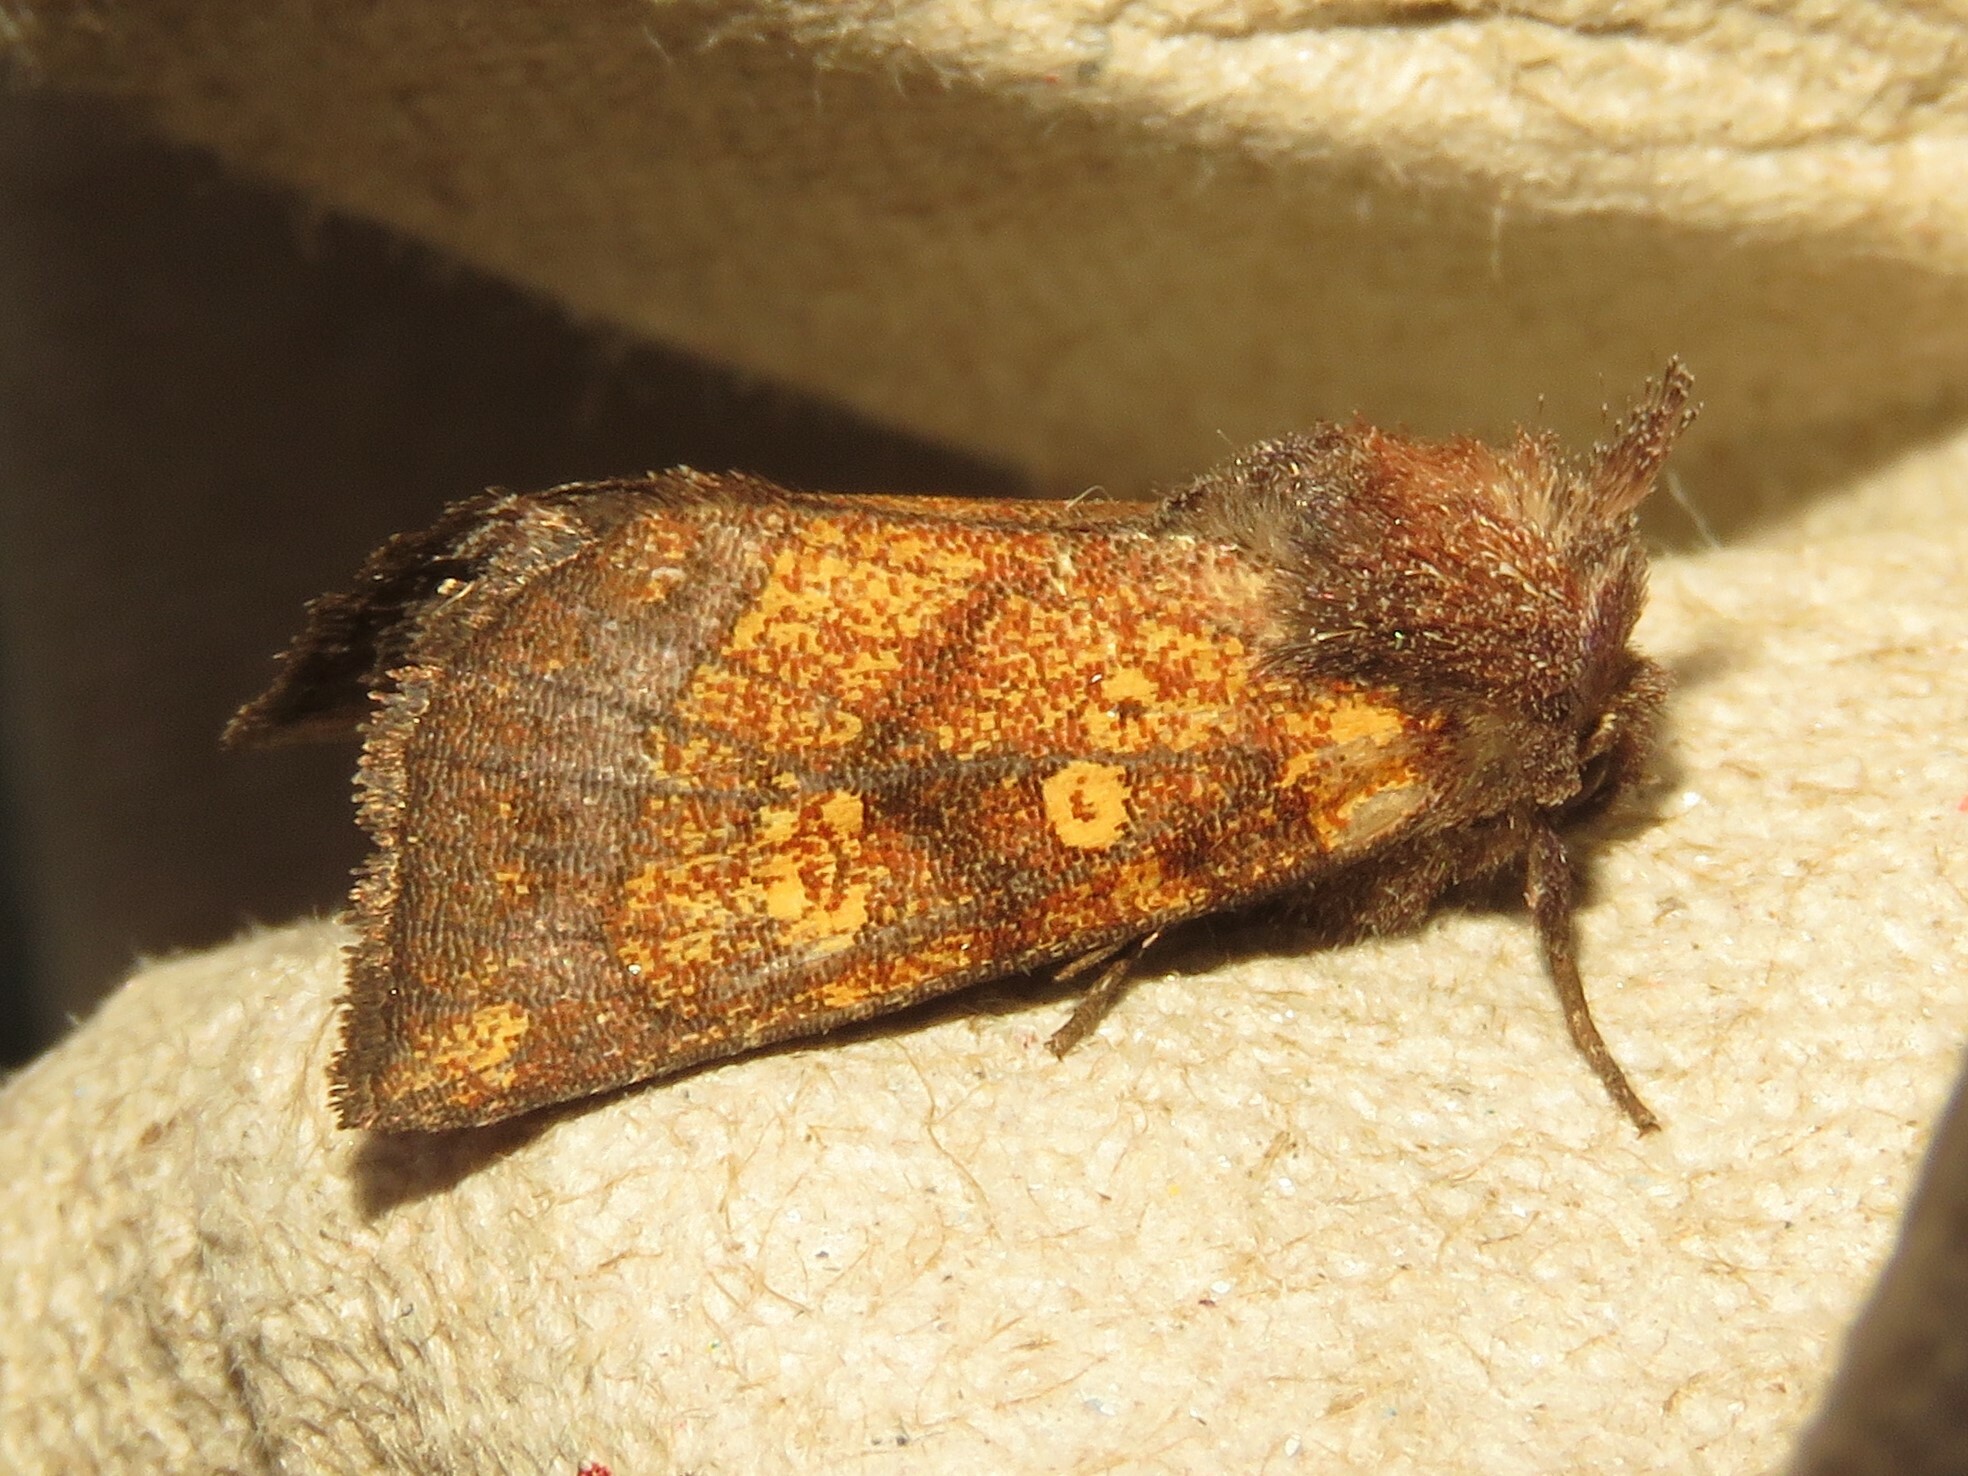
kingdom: Animalia
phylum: Arthropoda
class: Insecta
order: Lepidoptera
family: Noctuidae
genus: Papaipema
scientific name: Papaipema impecuniosa
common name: Aster borer moth
